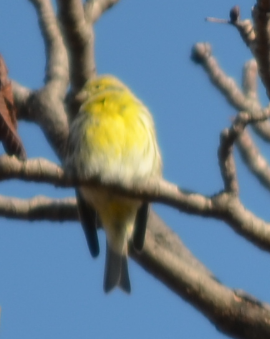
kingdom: Animalia
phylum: Chordata
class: Aves
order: Passeriformes
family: Fringillidae
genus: Serinus
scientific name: Serinus serinus
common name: European serin
